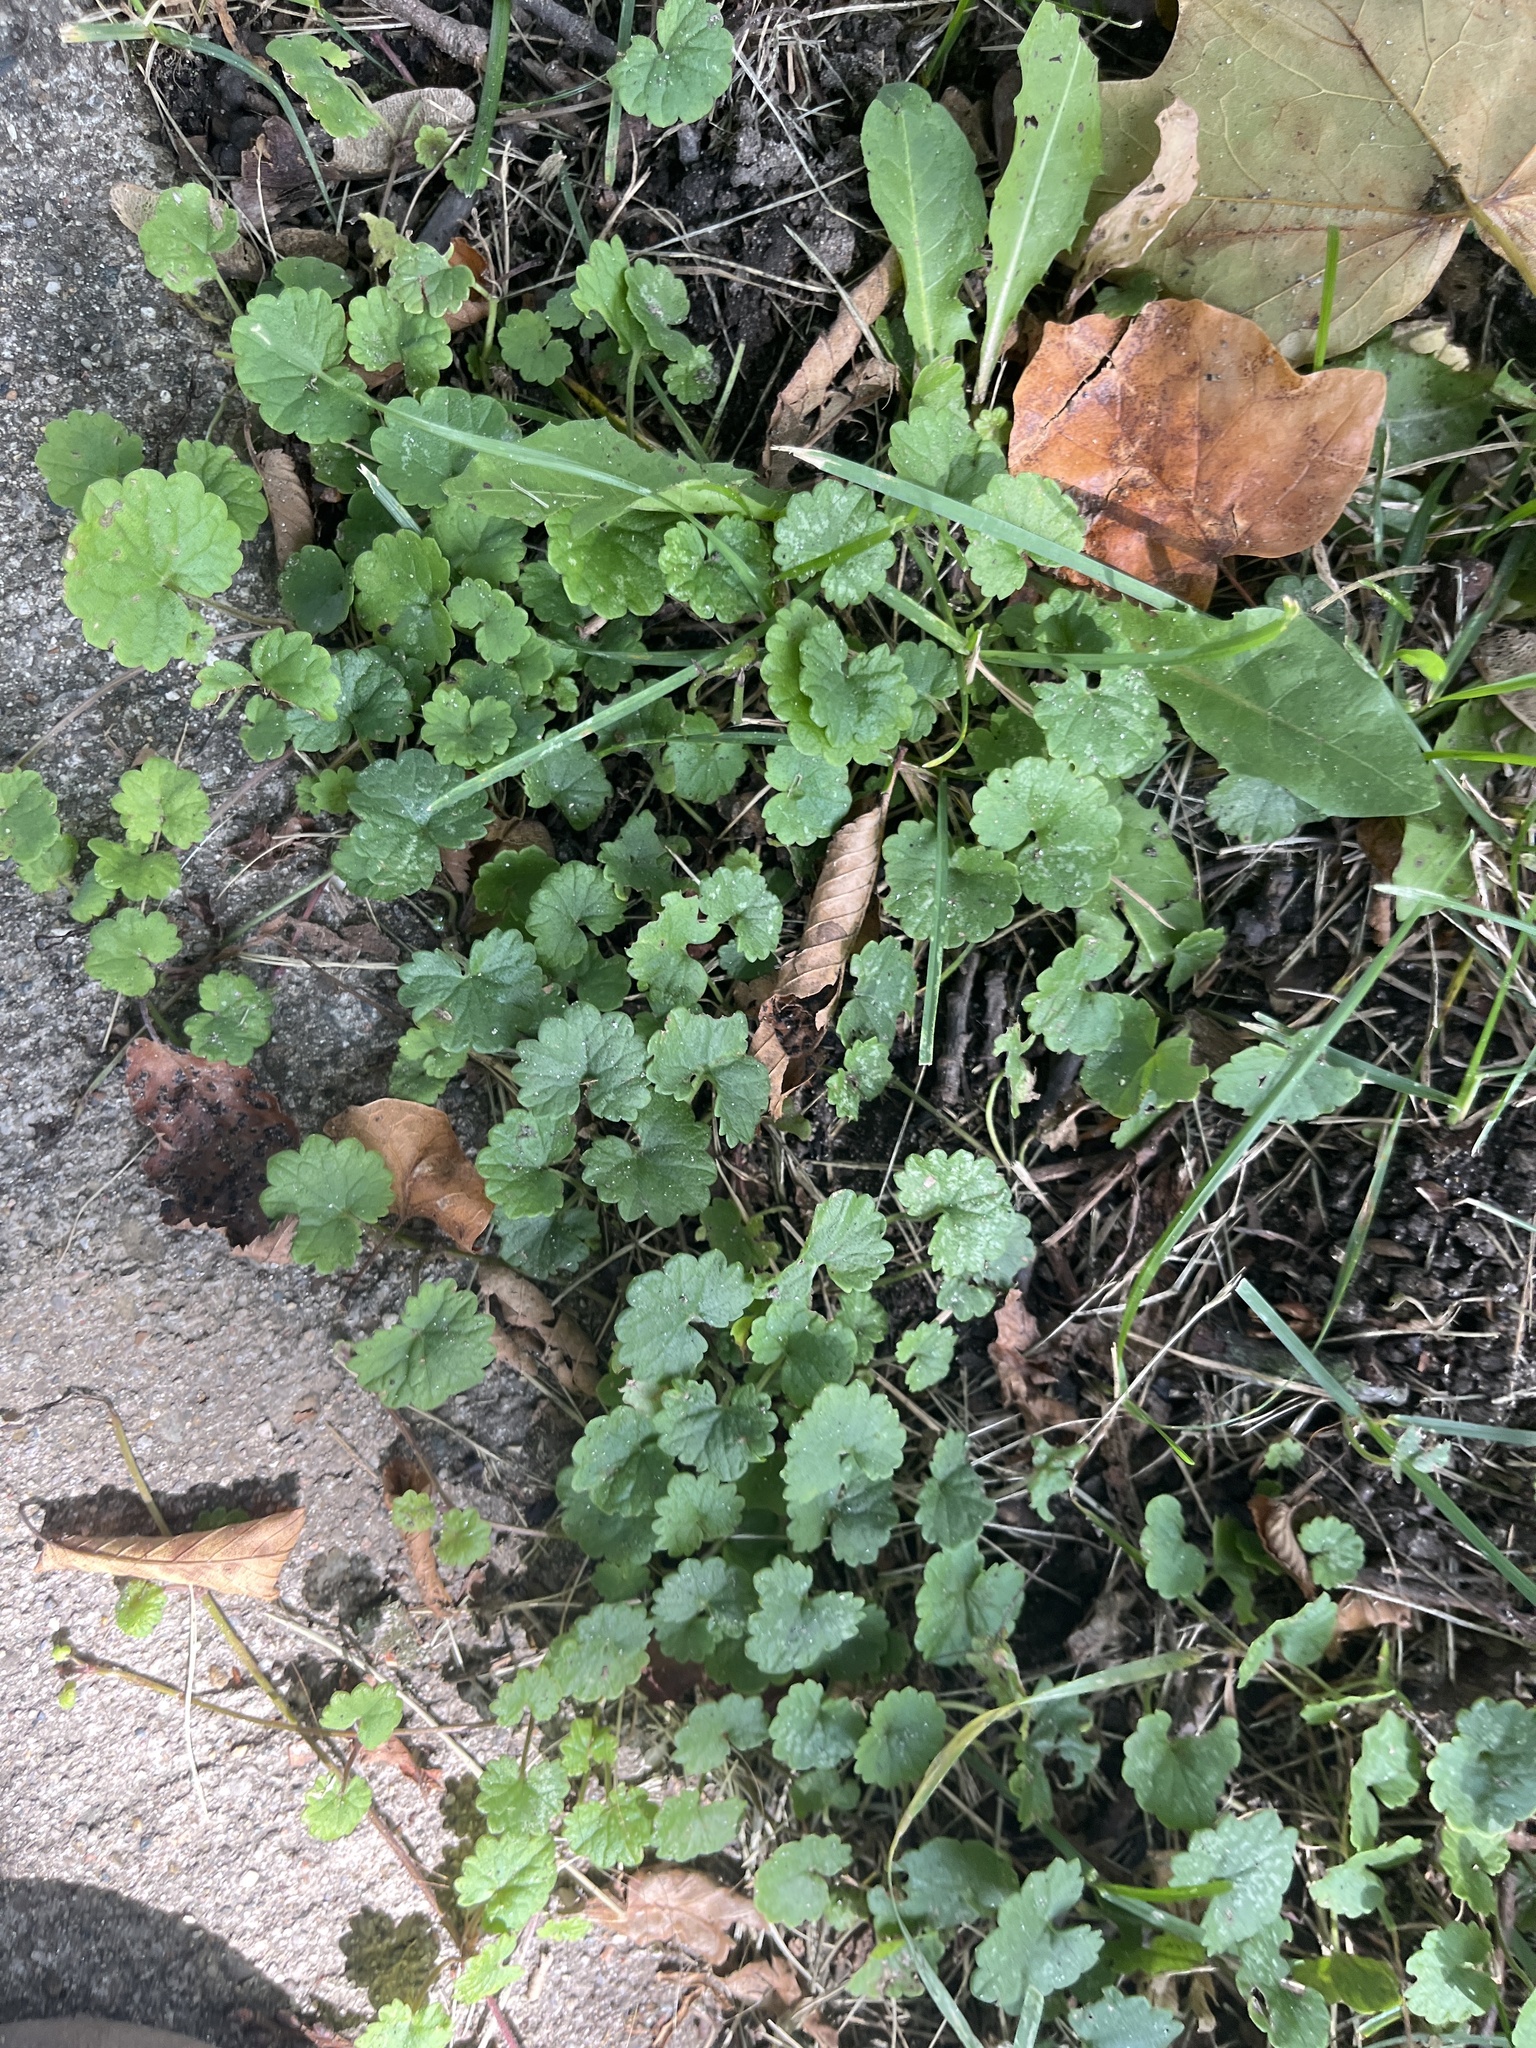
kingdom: Plantae
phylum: Tracheophyta
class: Magnoliopsida
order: Lamiales
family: Lamiaceae
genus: Glechoma
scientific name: Glechoma hederacea
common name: Ground ivy
